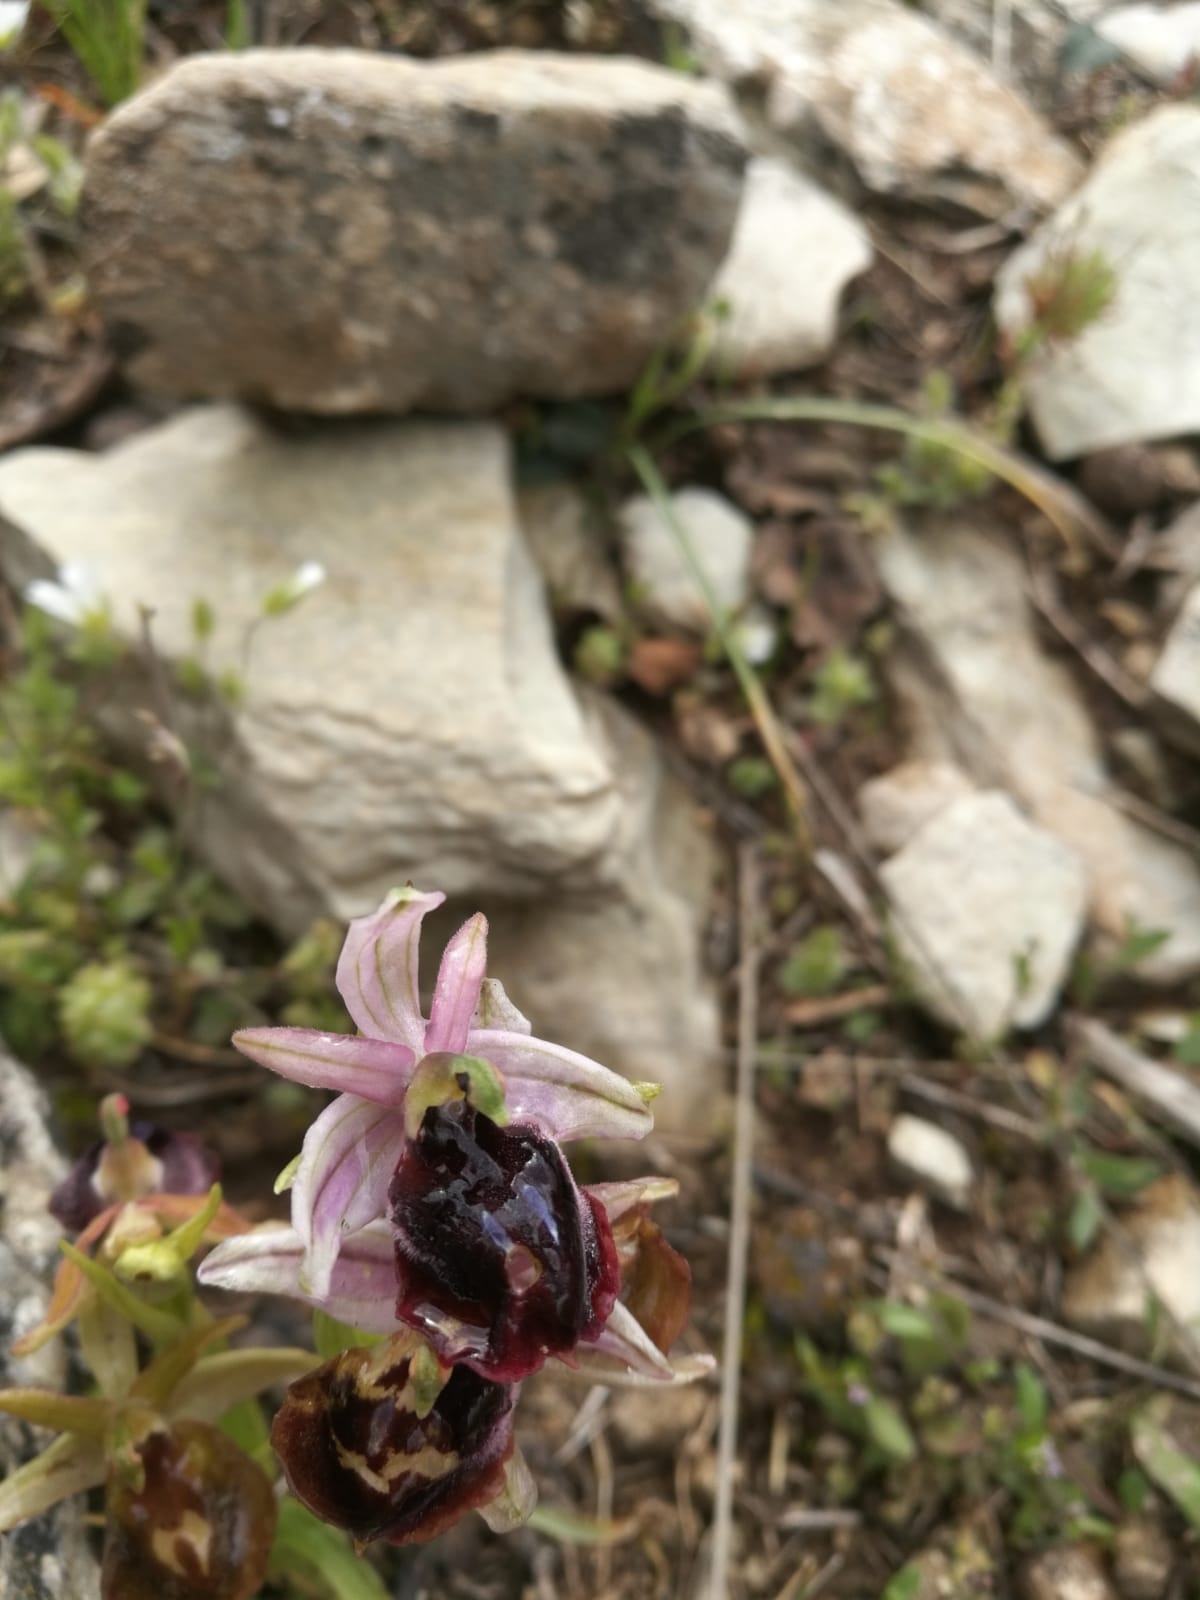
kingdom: Plantae
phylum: Tracheophyta
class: Liliopsida
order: Asparagales
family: Orchidaceae
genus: Ophrys
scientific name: Ophrys ferrum-equinum
